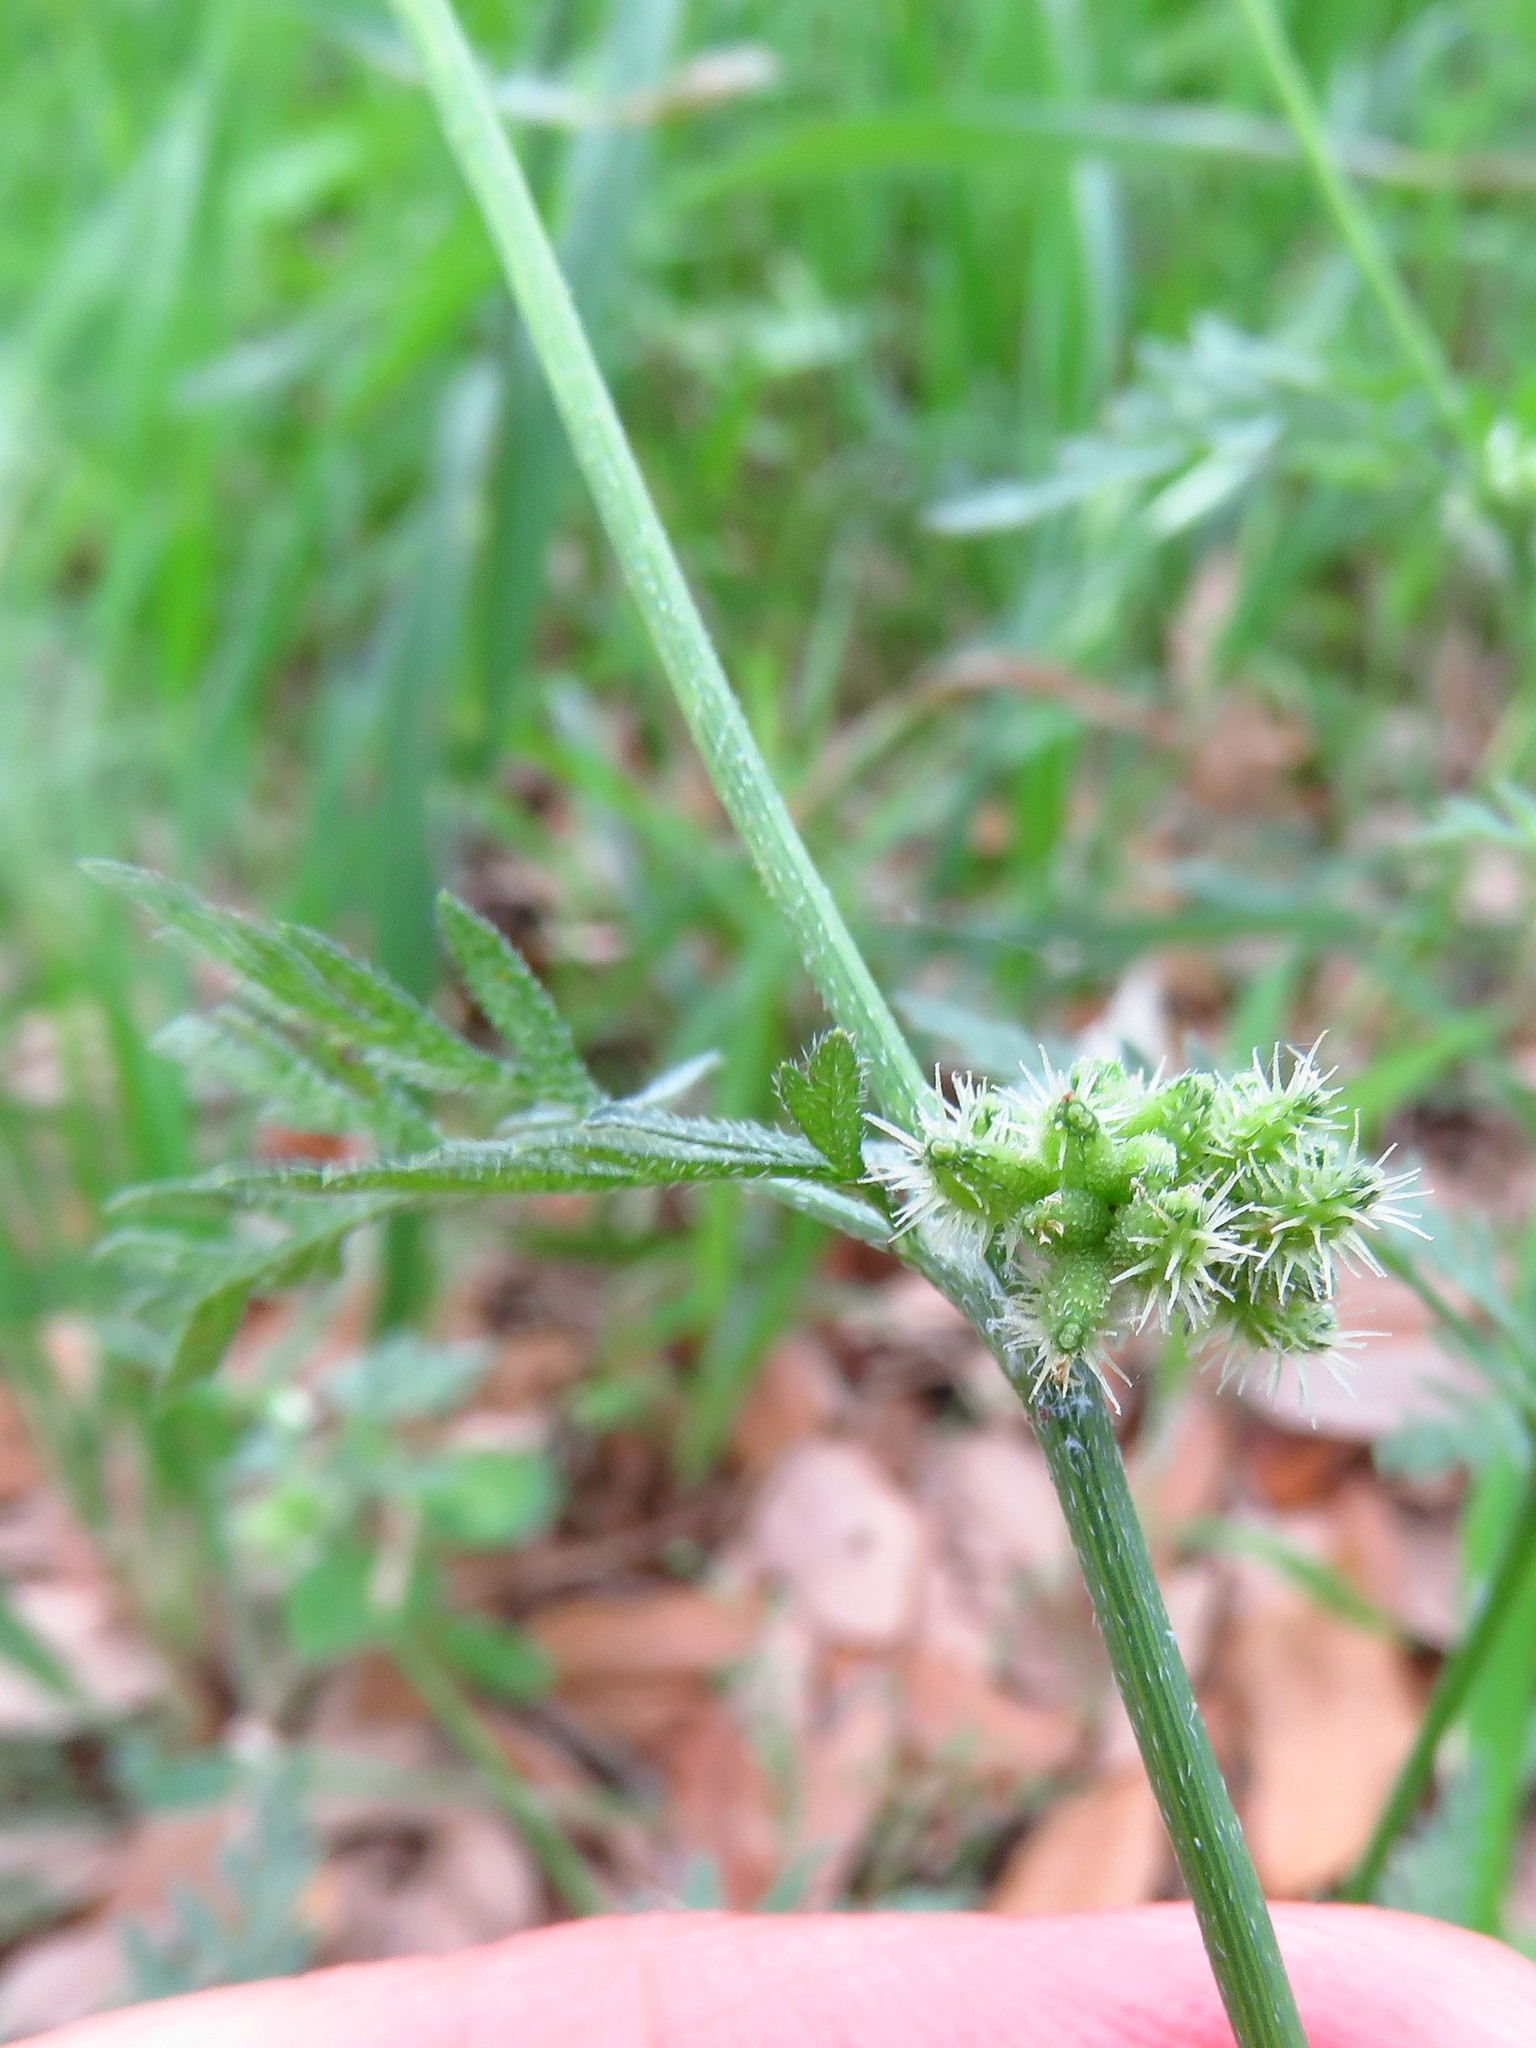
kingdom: Plantae
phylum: Tracheophyta
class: Magnoliopsida
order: Apiales
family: Apiaceae
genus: Torilis
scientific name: Torilis nodosa
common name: Knotted hedge-parsley
